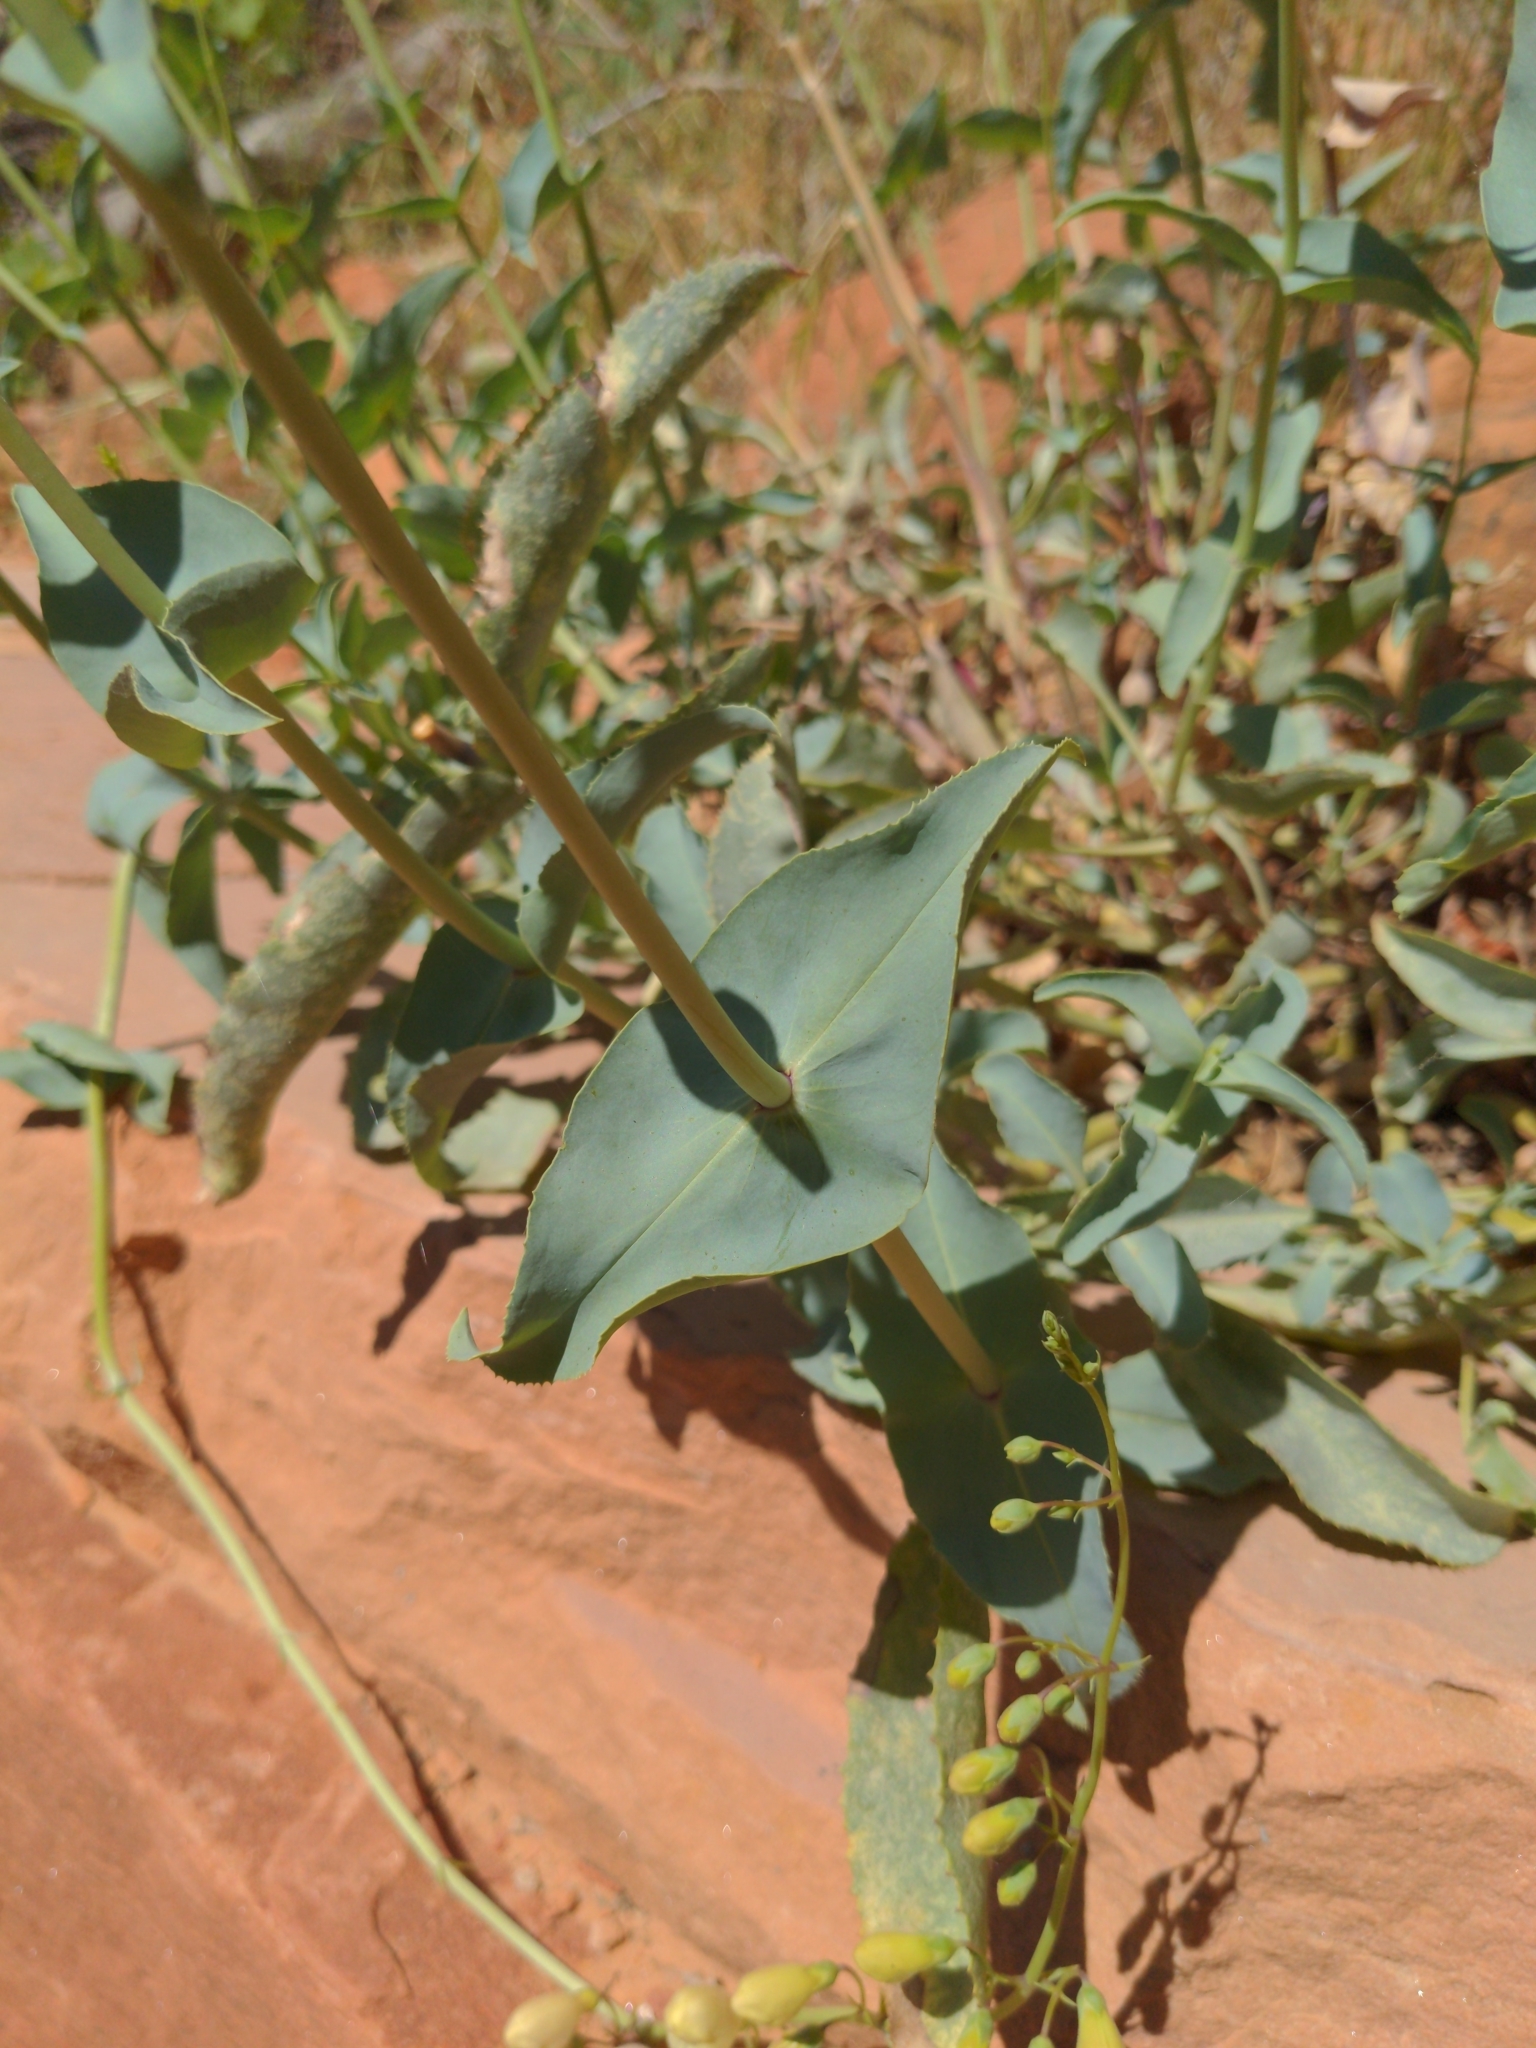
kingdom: Plantae
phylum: Tracheophyta
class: Magnoliopsida
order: Lamiales
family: Plantaginaceae
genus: Penstemon
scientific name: Penstemon palmeri
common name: Palmer penstemon
